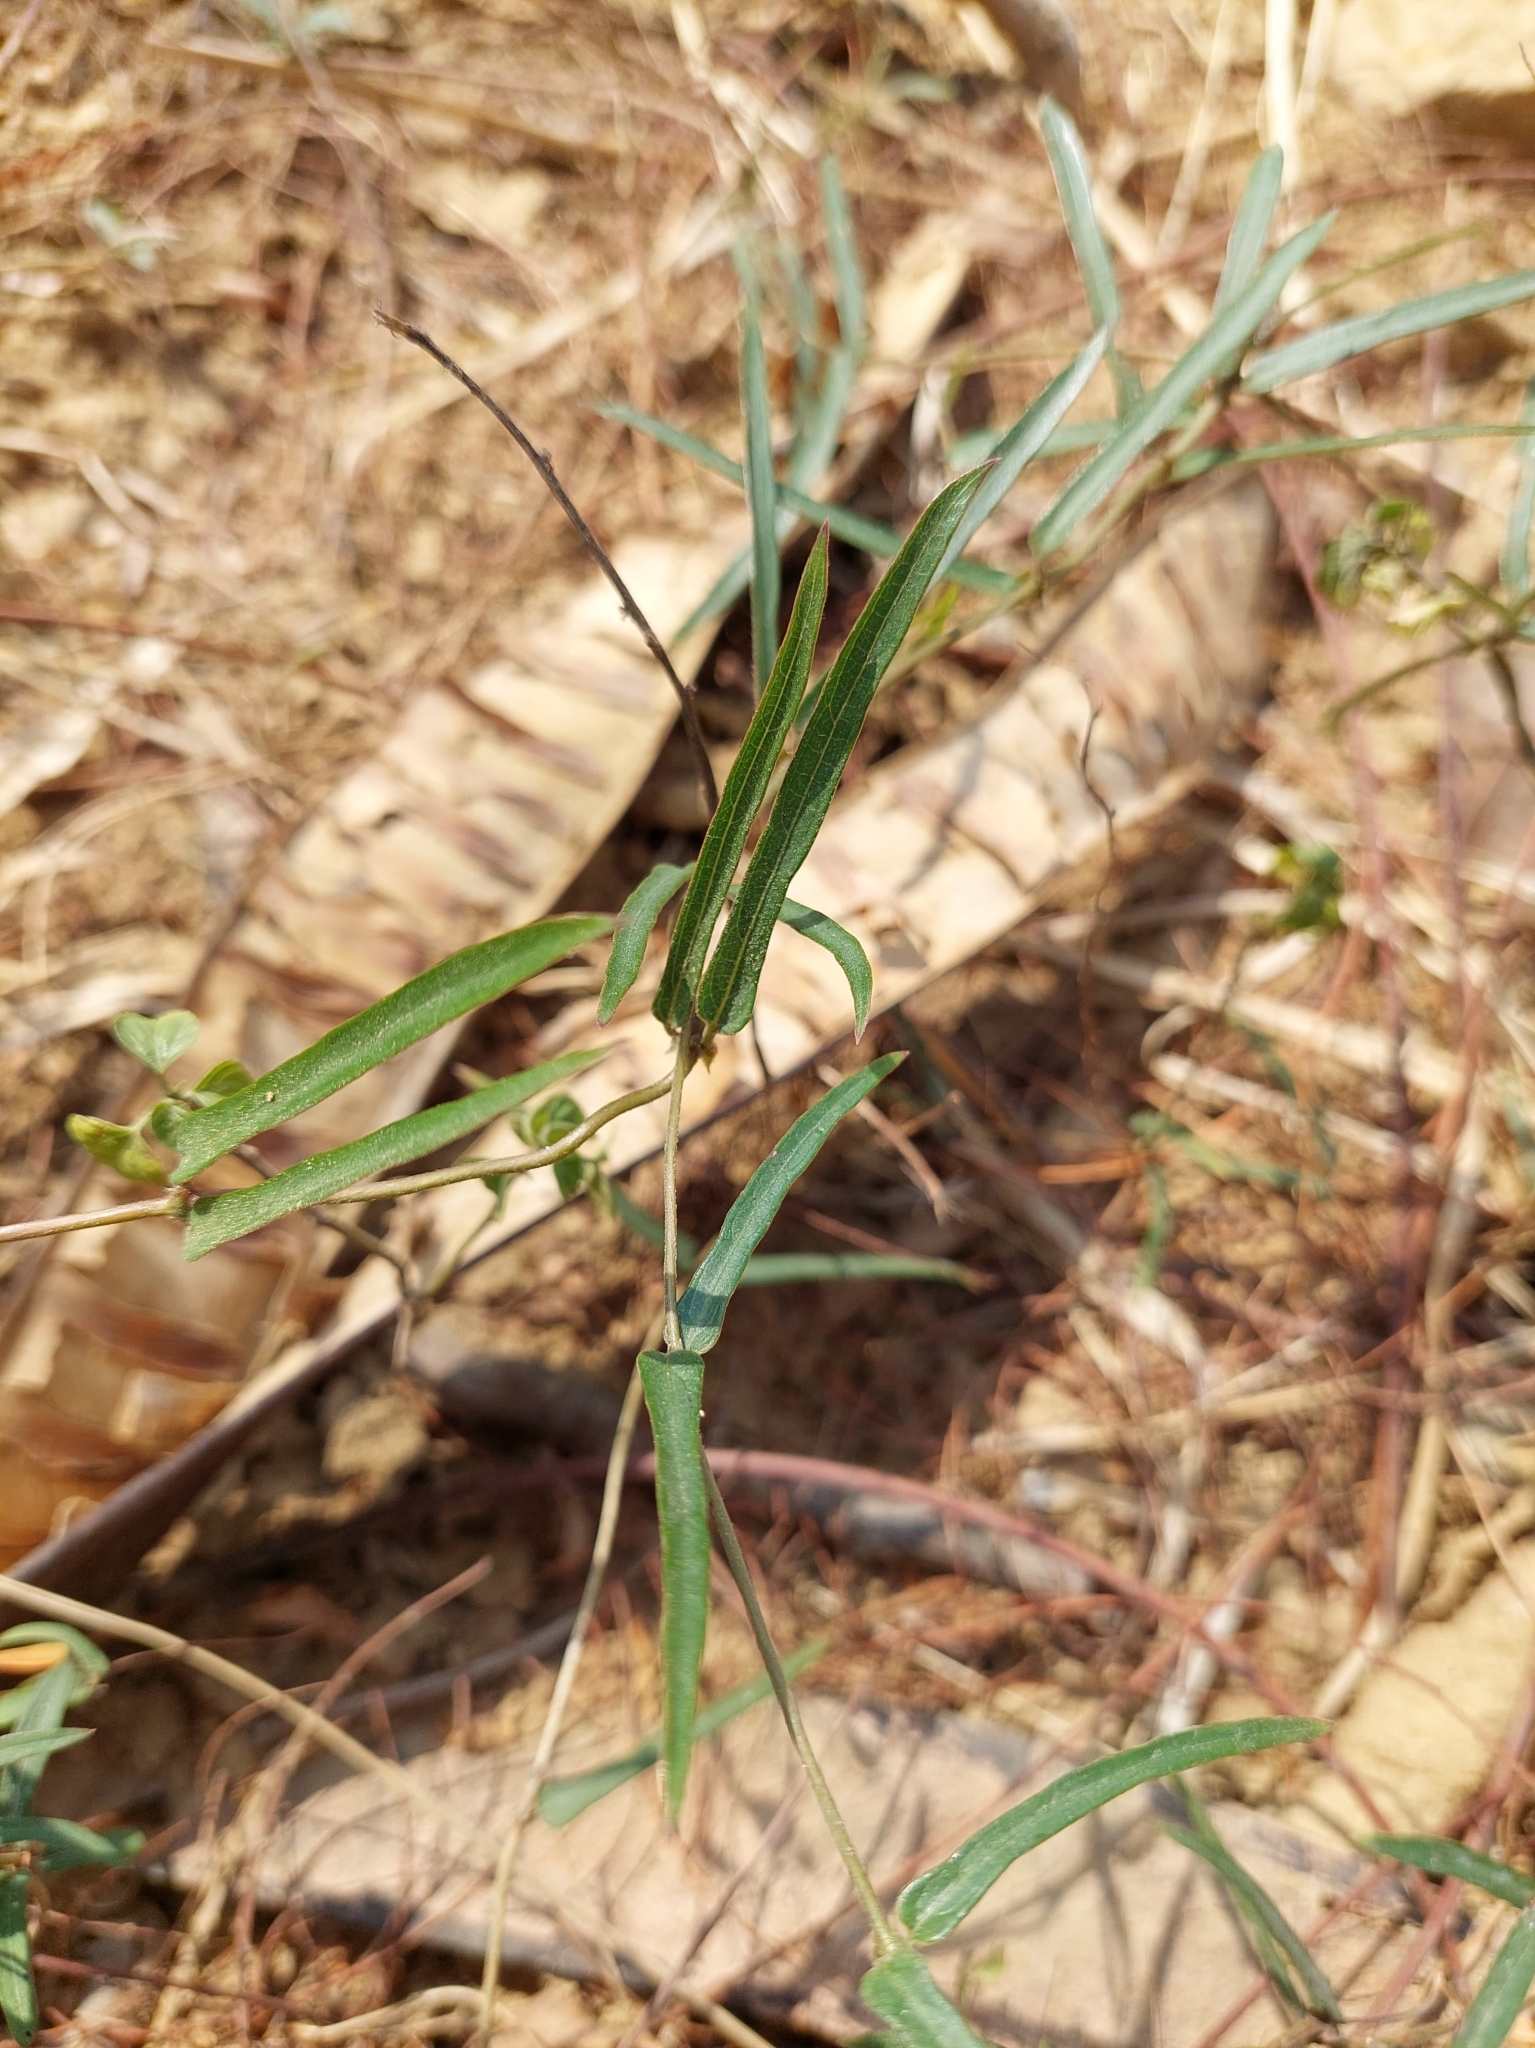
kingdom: Plantae
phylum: Tracheophyta
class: Magnoliopsida
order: Gentianales
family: Rubiaceae
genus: Paederia
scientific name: Paederia foetida
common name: Stinkvine
